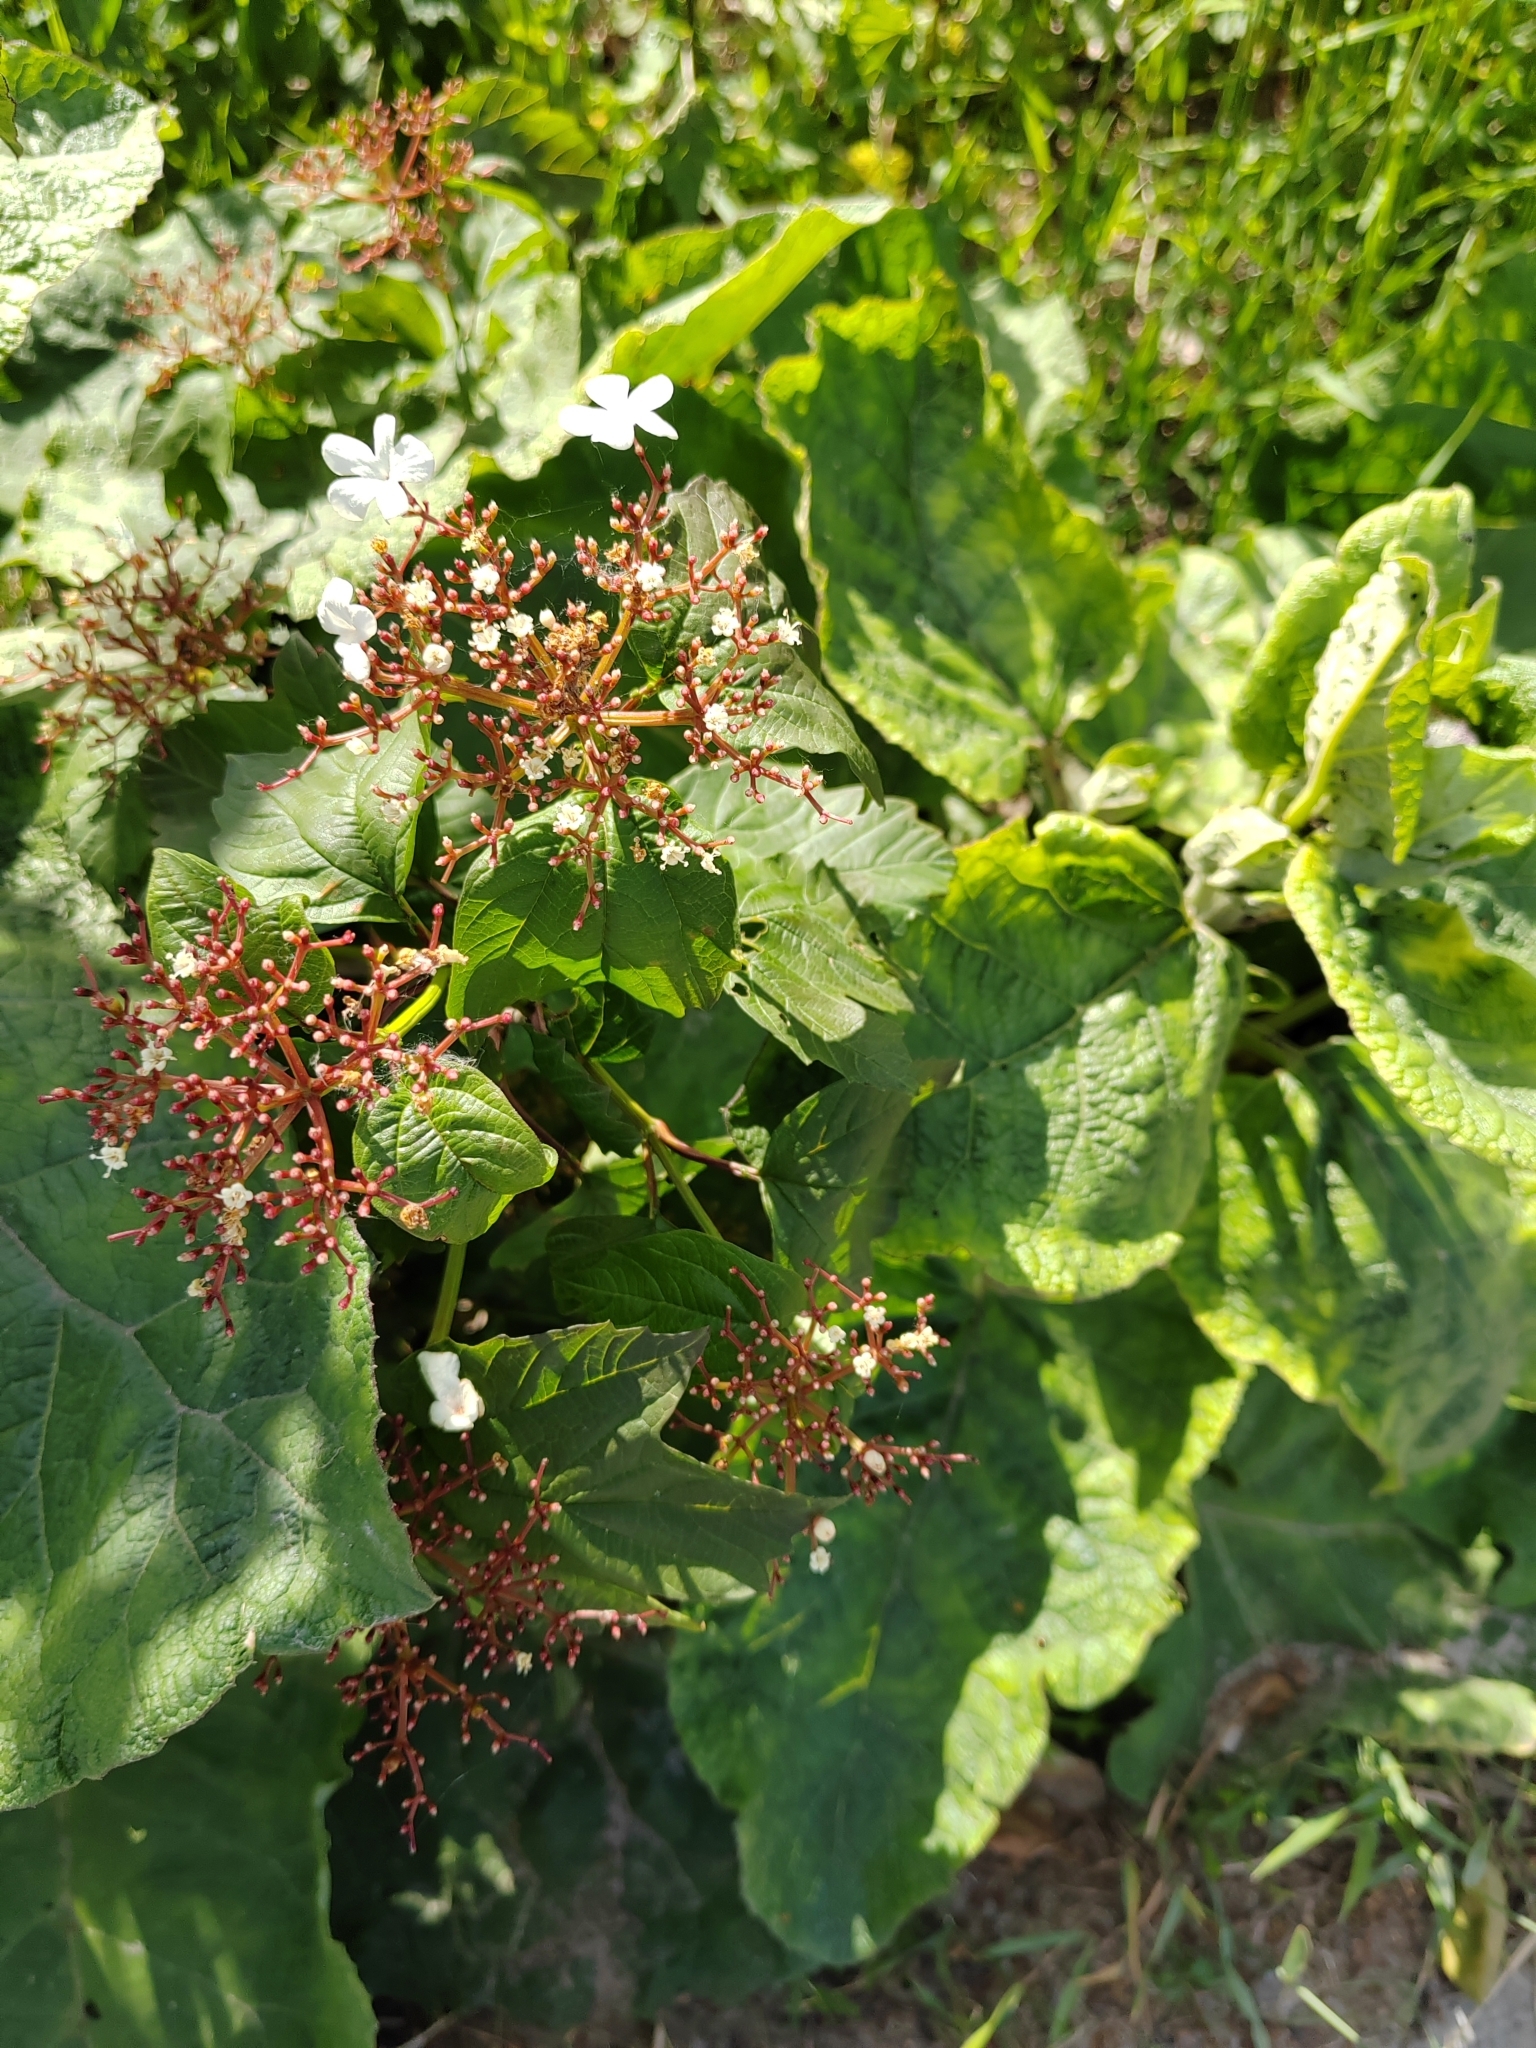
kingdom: Plantae
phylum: Tracheophyta
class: Magnoliopsida
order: Dipsacales
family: Viburnaceae
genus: Viburnum
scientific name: Viburnum opulus
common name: Guelder-rose
